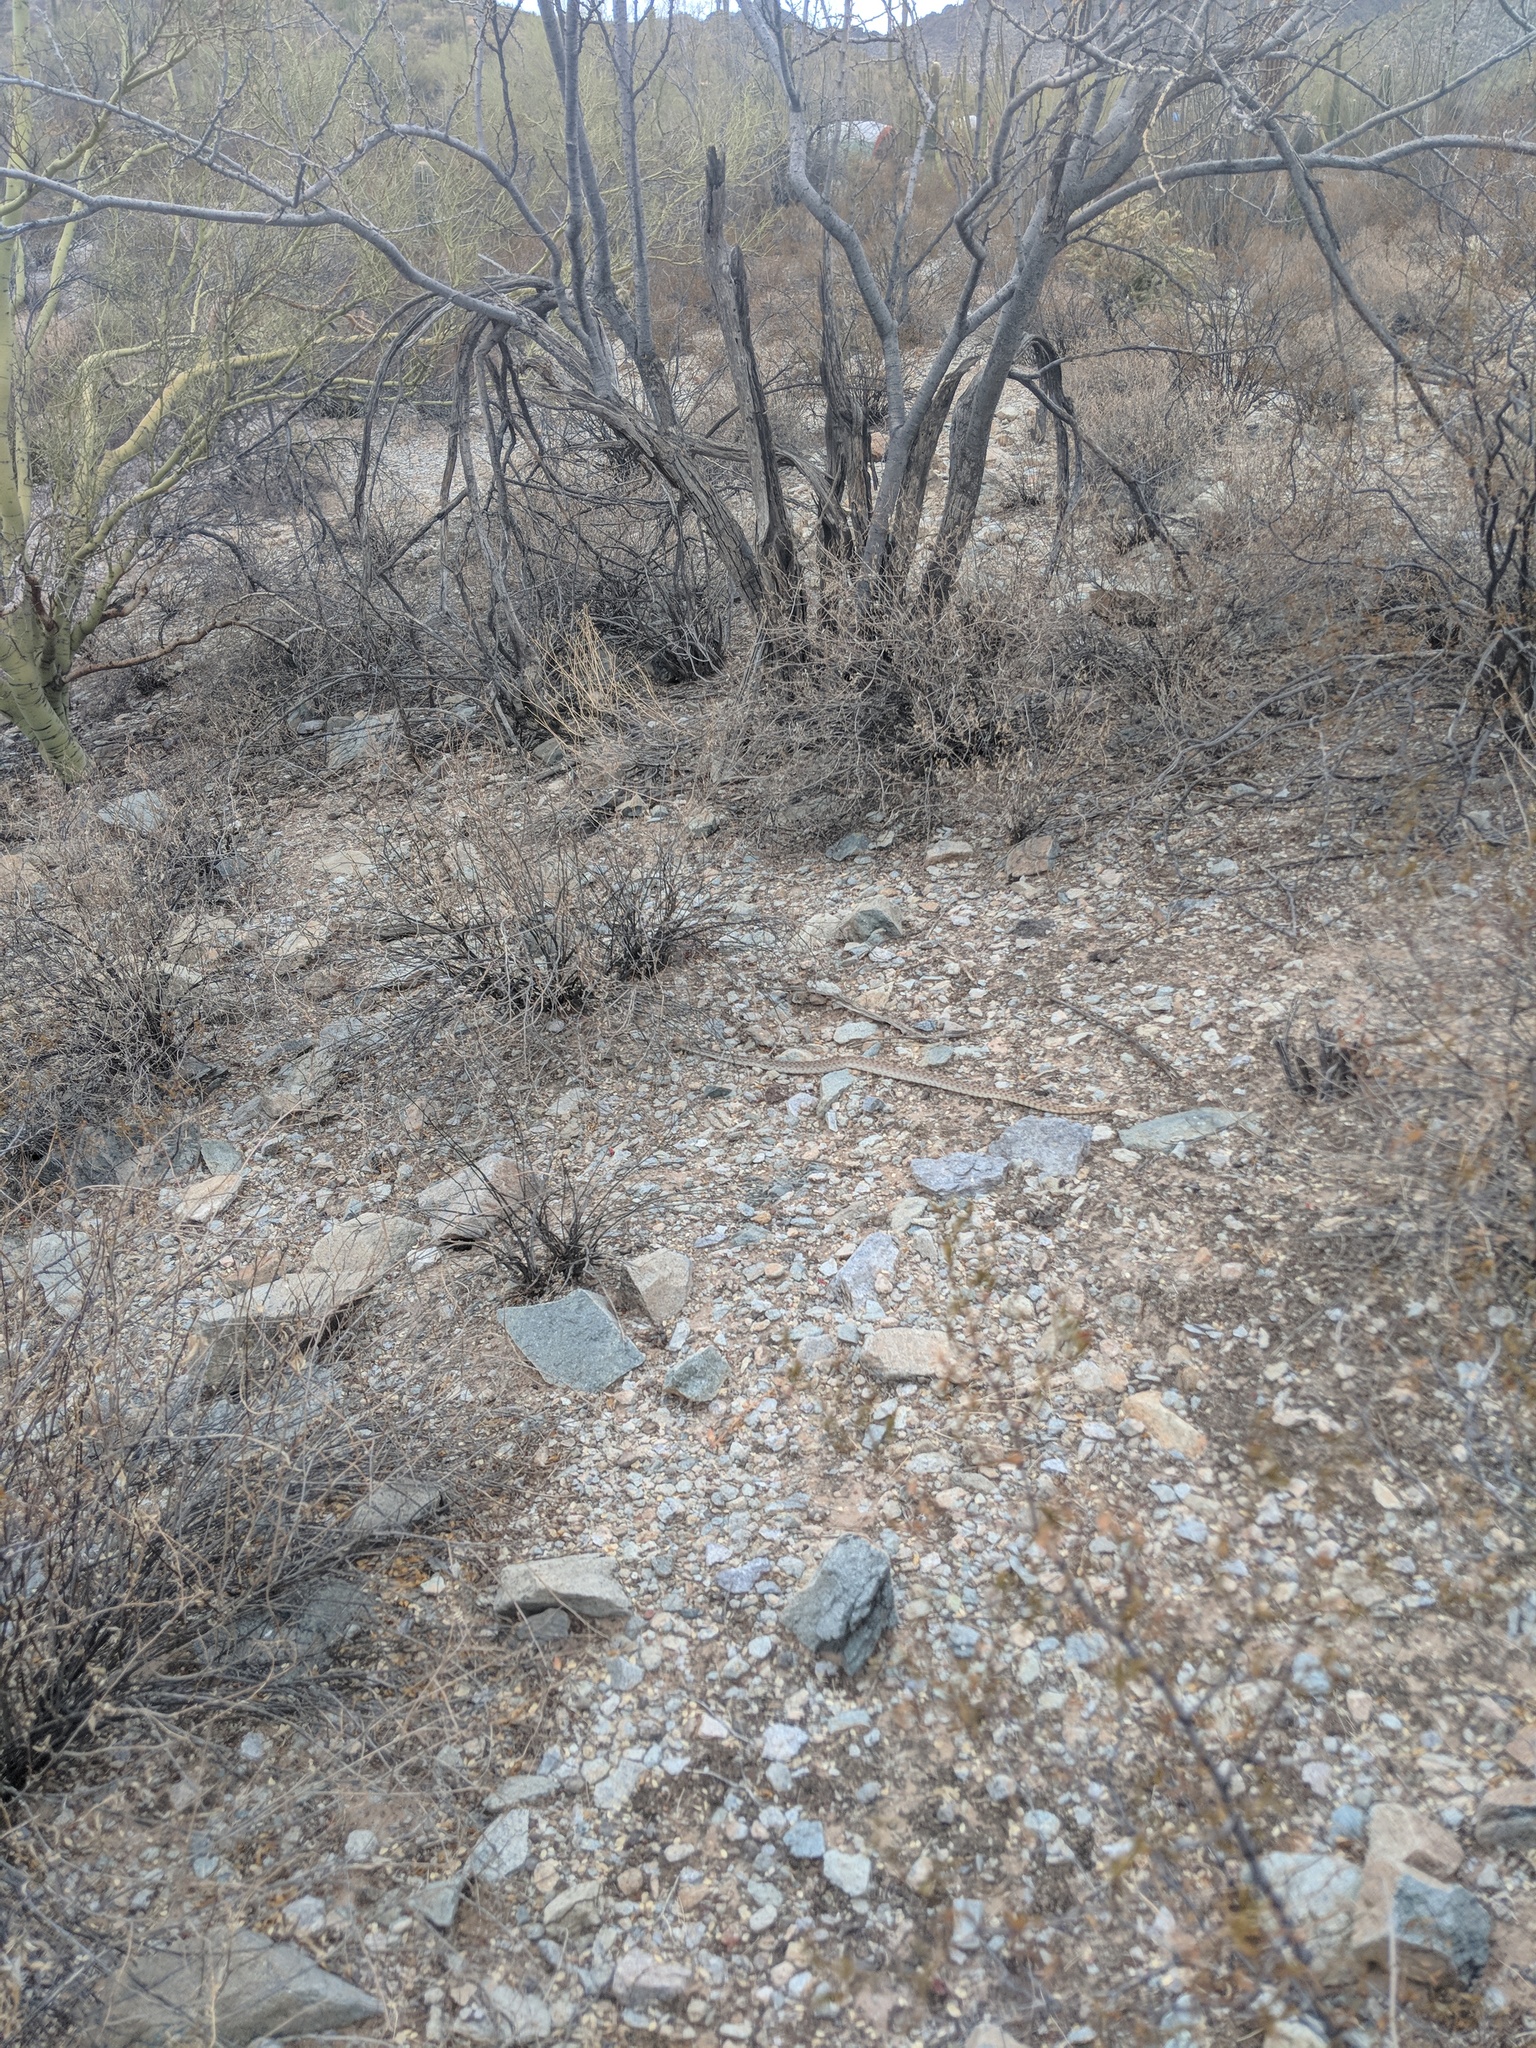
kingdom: Animalia
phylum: Chordata
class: Squamata
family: Colubridae
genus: Pituophis
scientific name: Pituophis catenifer
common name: Gopher snake
